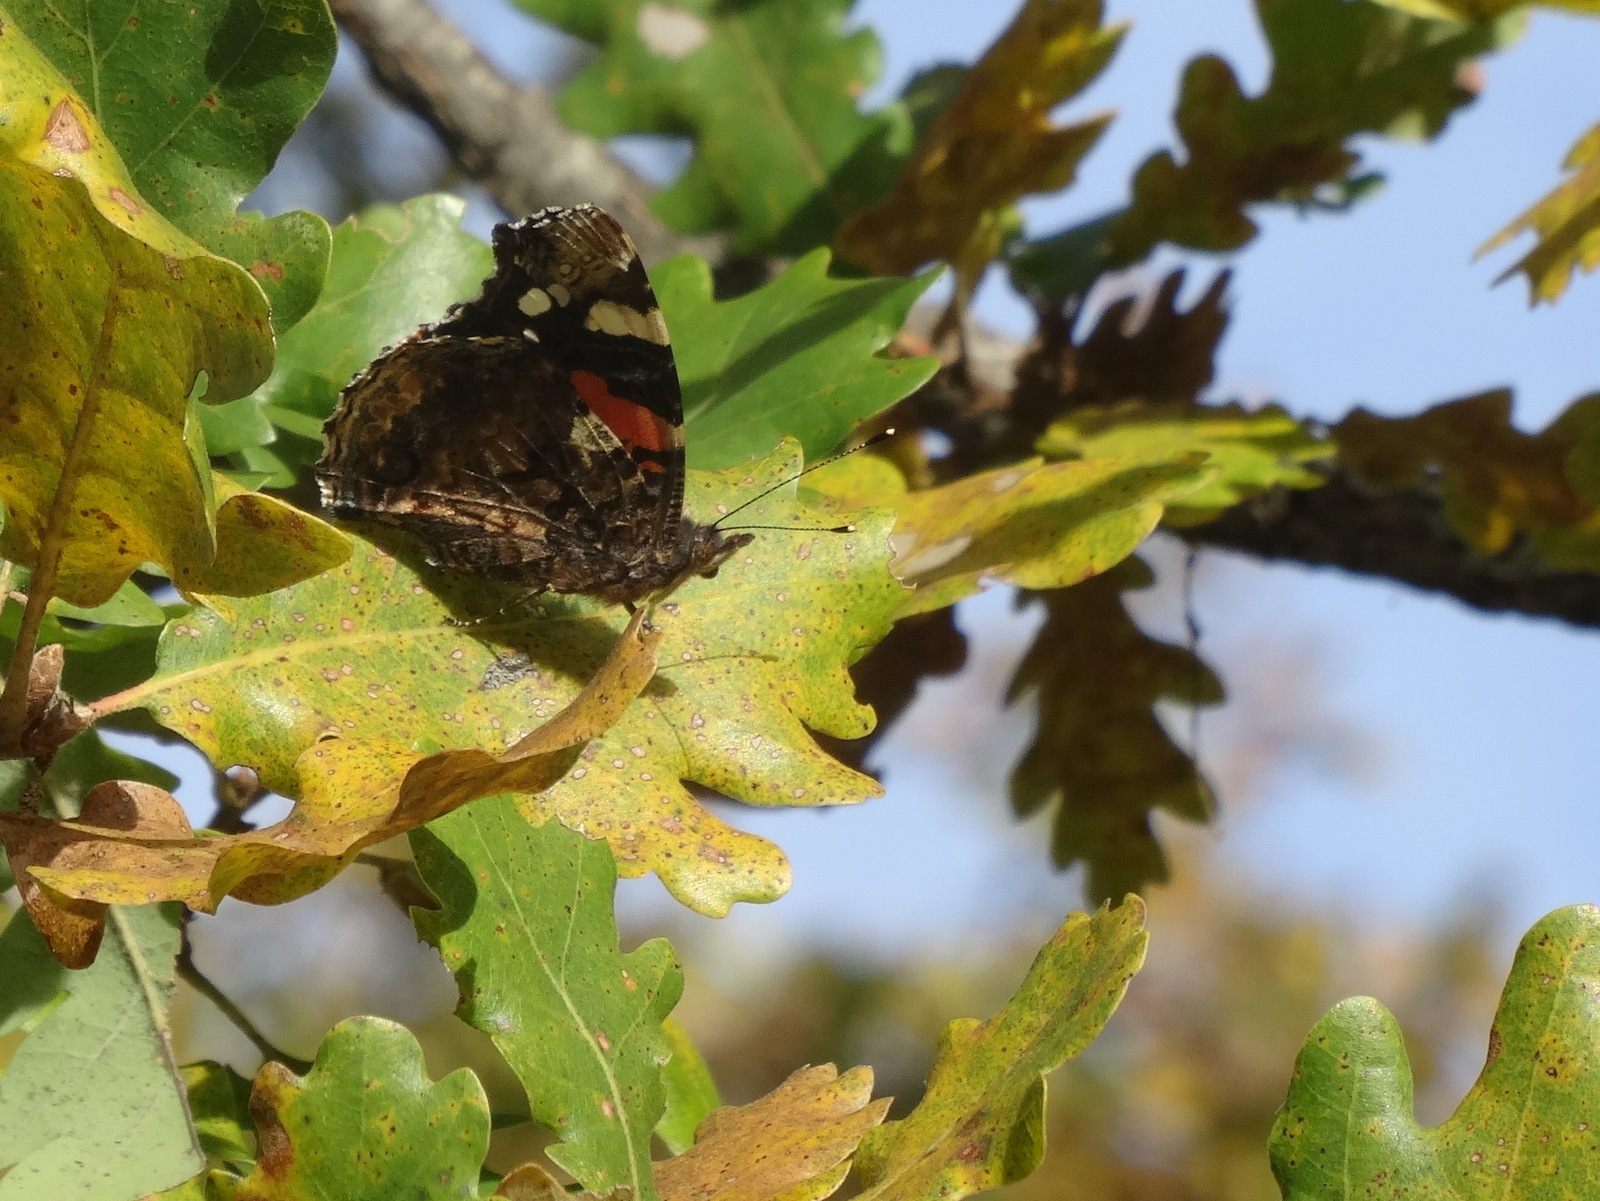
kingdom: Animalia
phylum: Arthropoda
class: Insecta
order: Lepidoptera
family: Nymphalidae
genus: Vanessa
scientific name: Vanessa atalanta
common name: Red admiral
